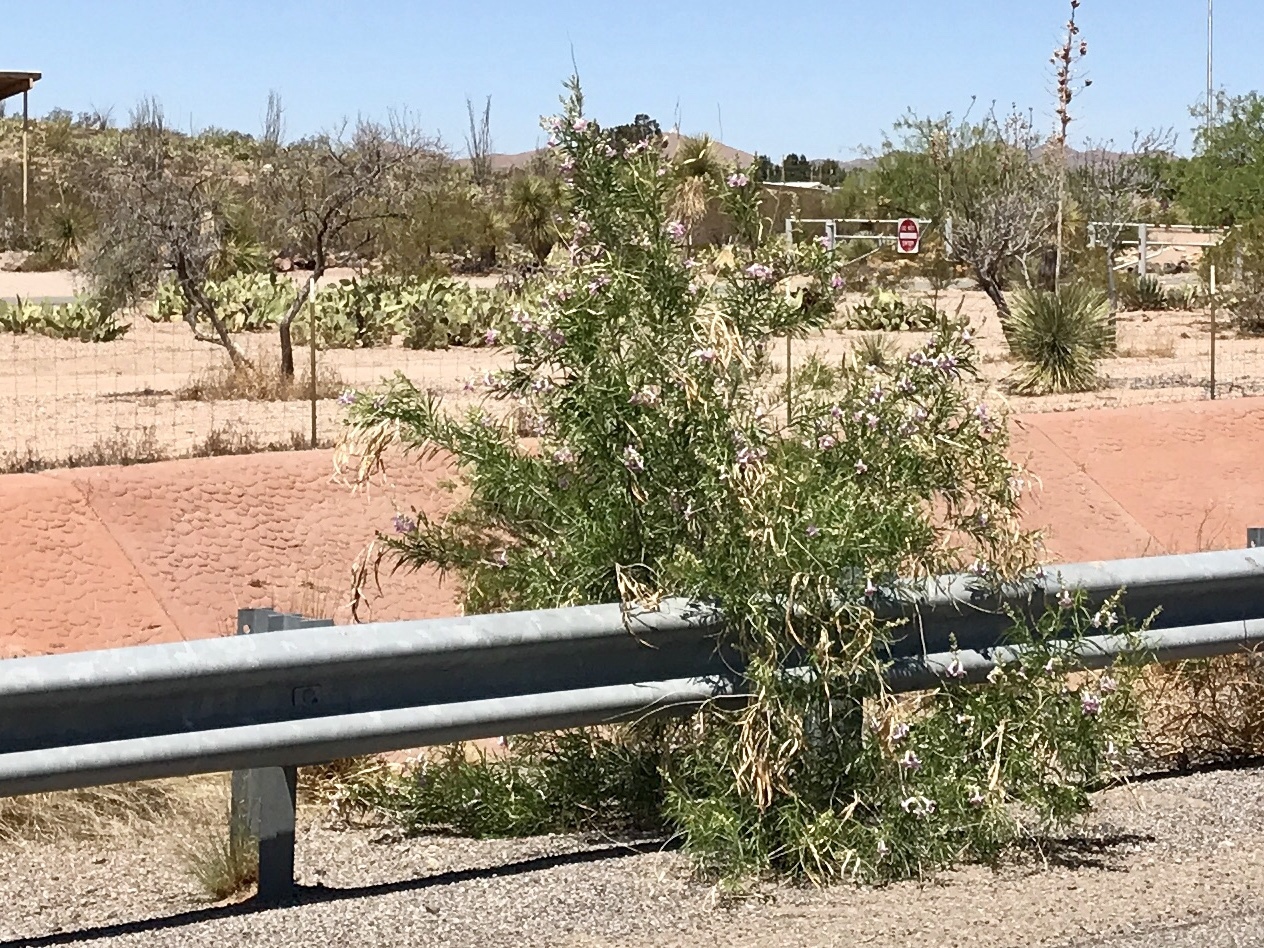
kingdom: Plantae
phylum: Tracheophyta
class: Magnoliopsida
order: Lamiales
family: Bignoniaceae
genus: Chilopsis
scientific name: Chilopsis linearis
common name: Desert-willow
